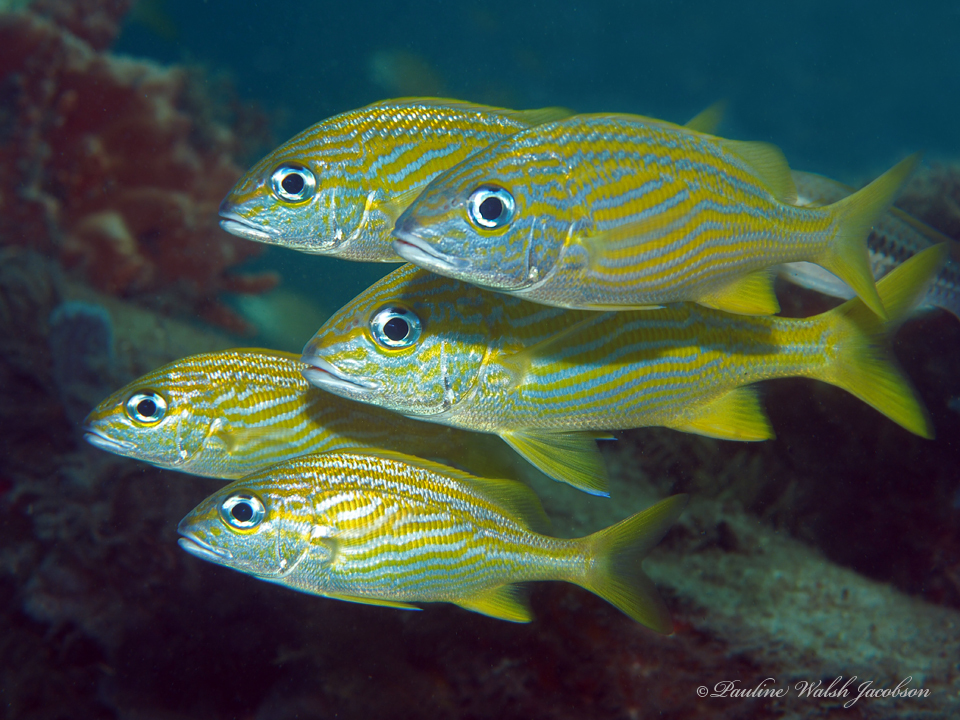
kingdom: Animalia
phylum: Chordata
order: Perciformes
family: Haemulidae
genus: Haemulon
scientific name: Haemulon flavolineatum
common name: French grunt
